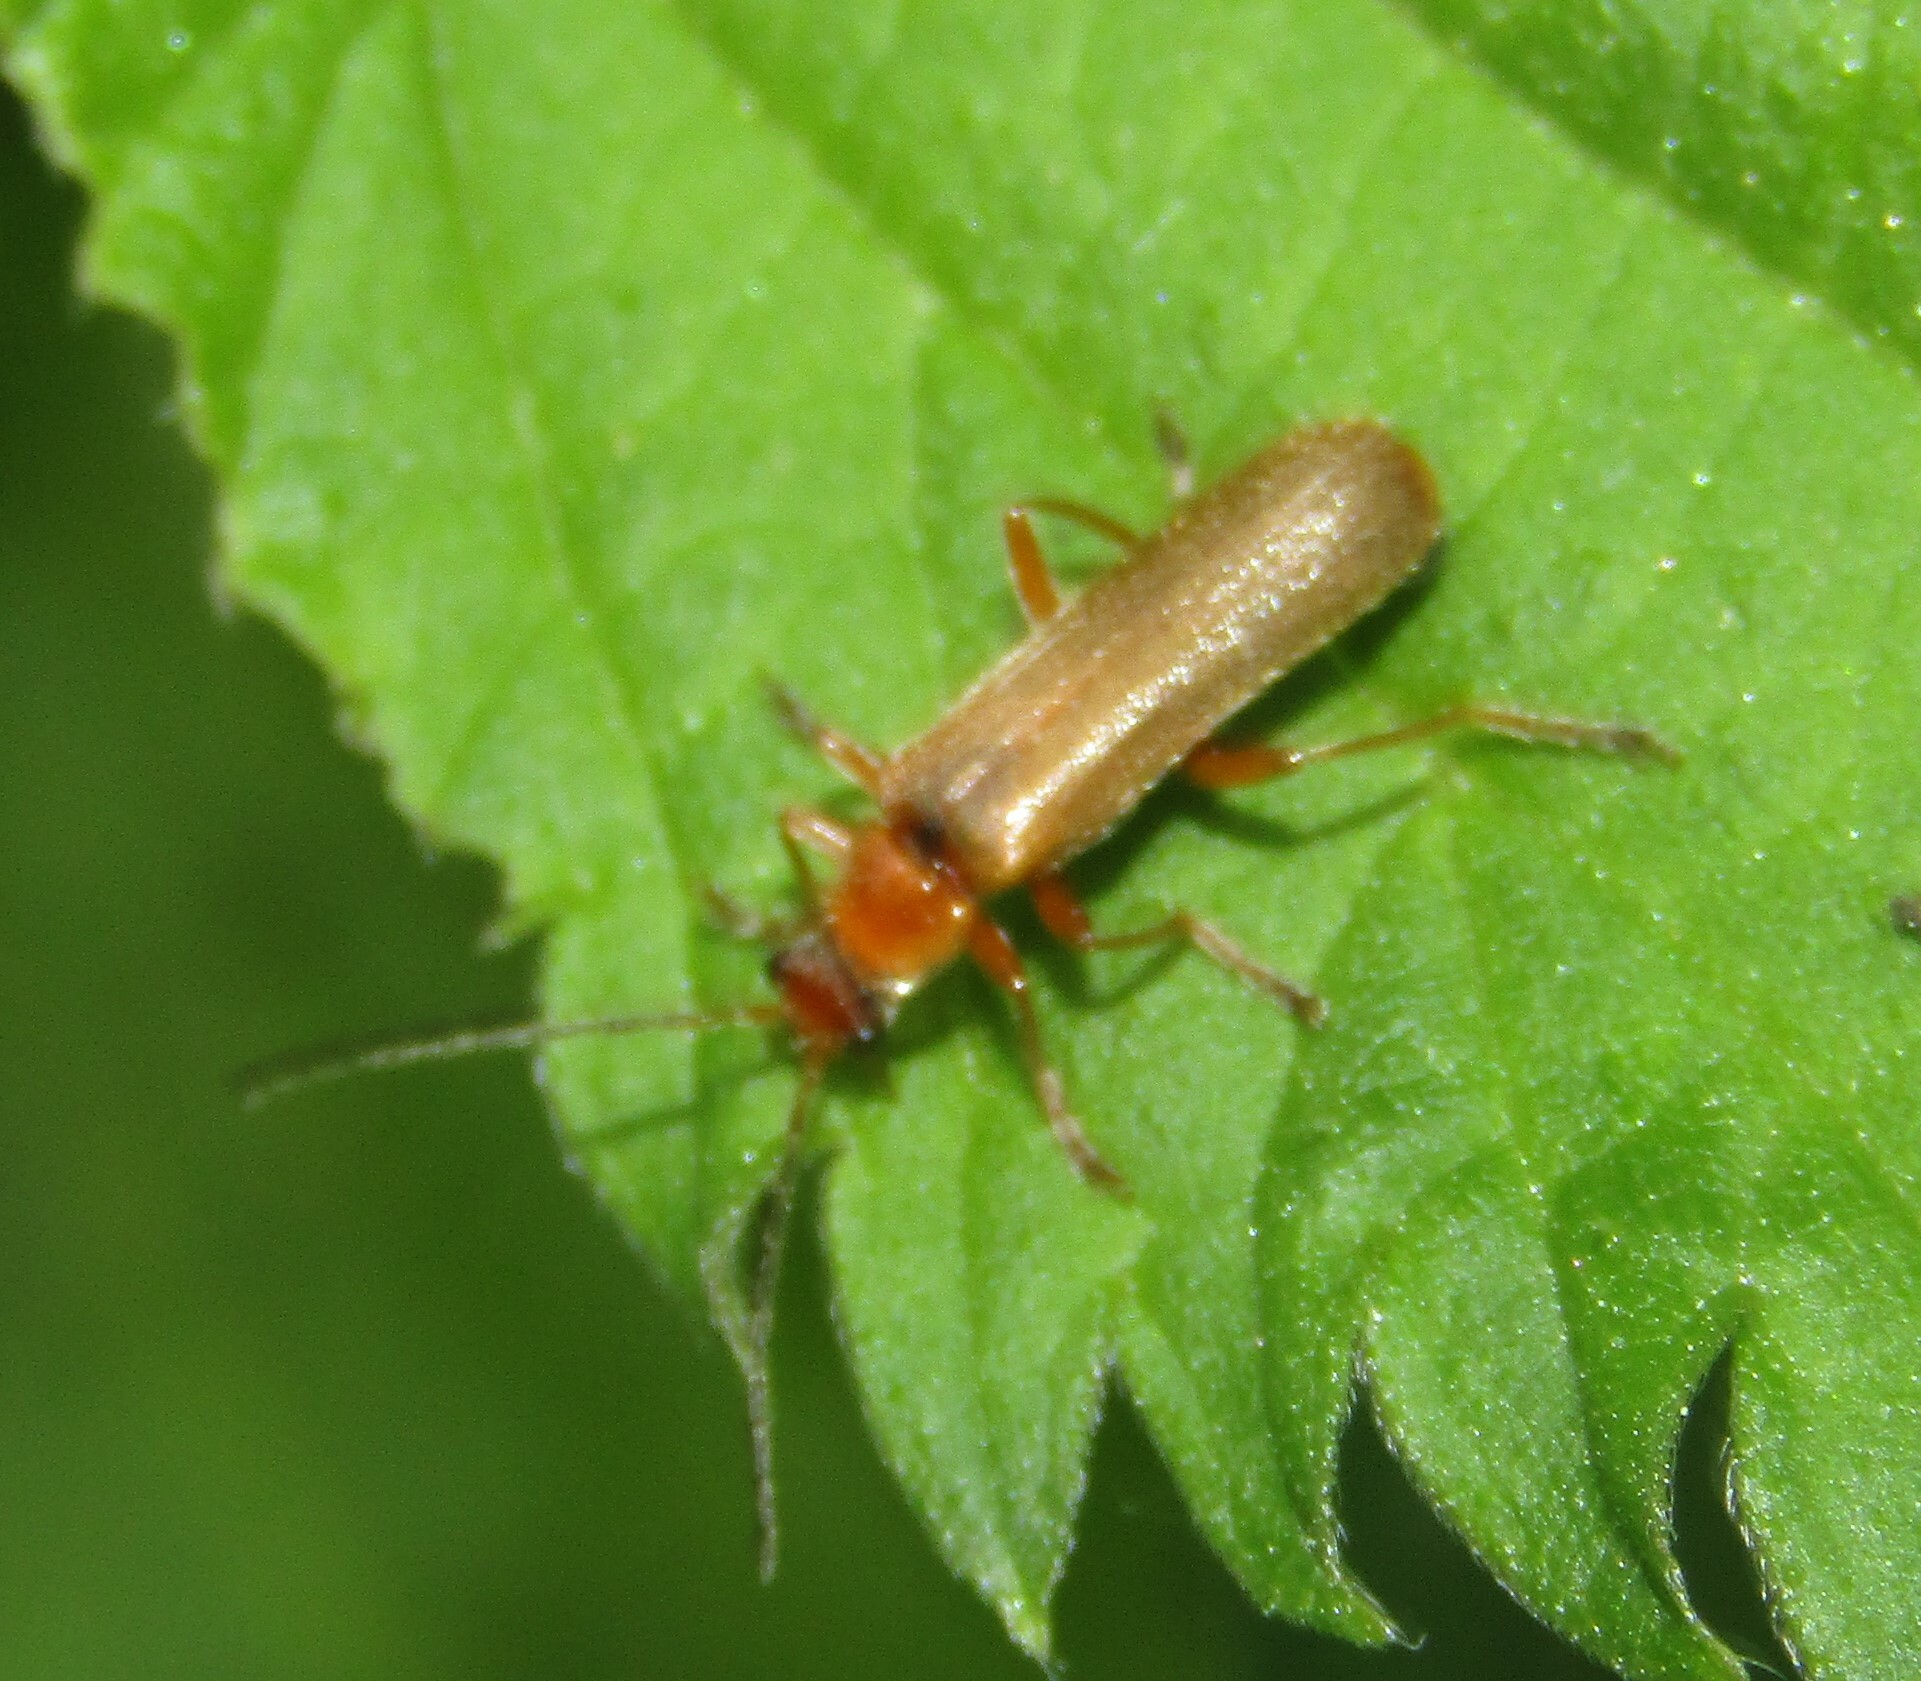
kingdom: Animalia
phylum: Arthropoda
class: Insecta
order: Coleoptera
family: Cantharidae
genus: Cantharis
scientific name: Cantharis rufa
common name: Red-spotted soldier beetle
